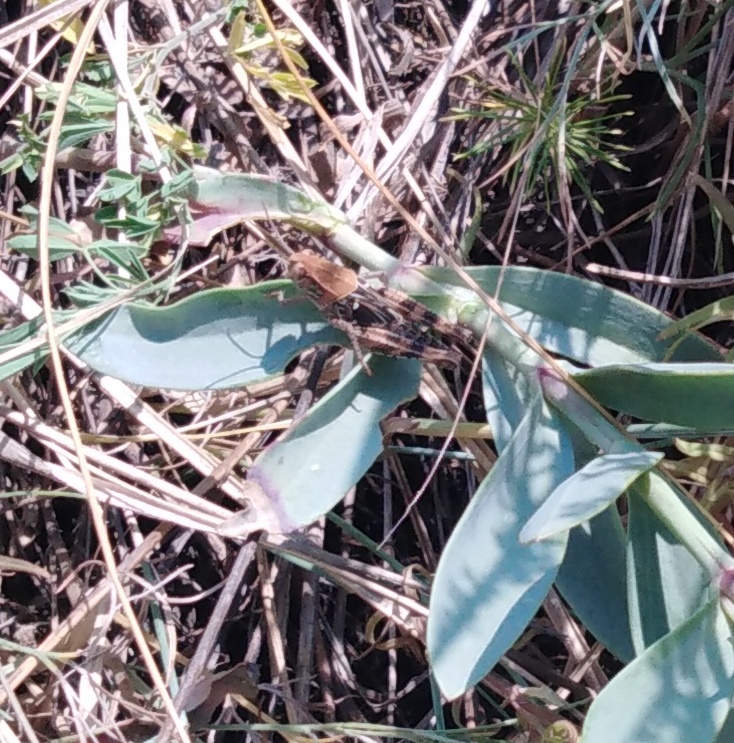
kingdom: Animalia
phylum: Arthropoda
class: Insecta
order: Orthoptera
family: Acrididae
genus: Calliptamus
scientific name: Calliptamus italicus
